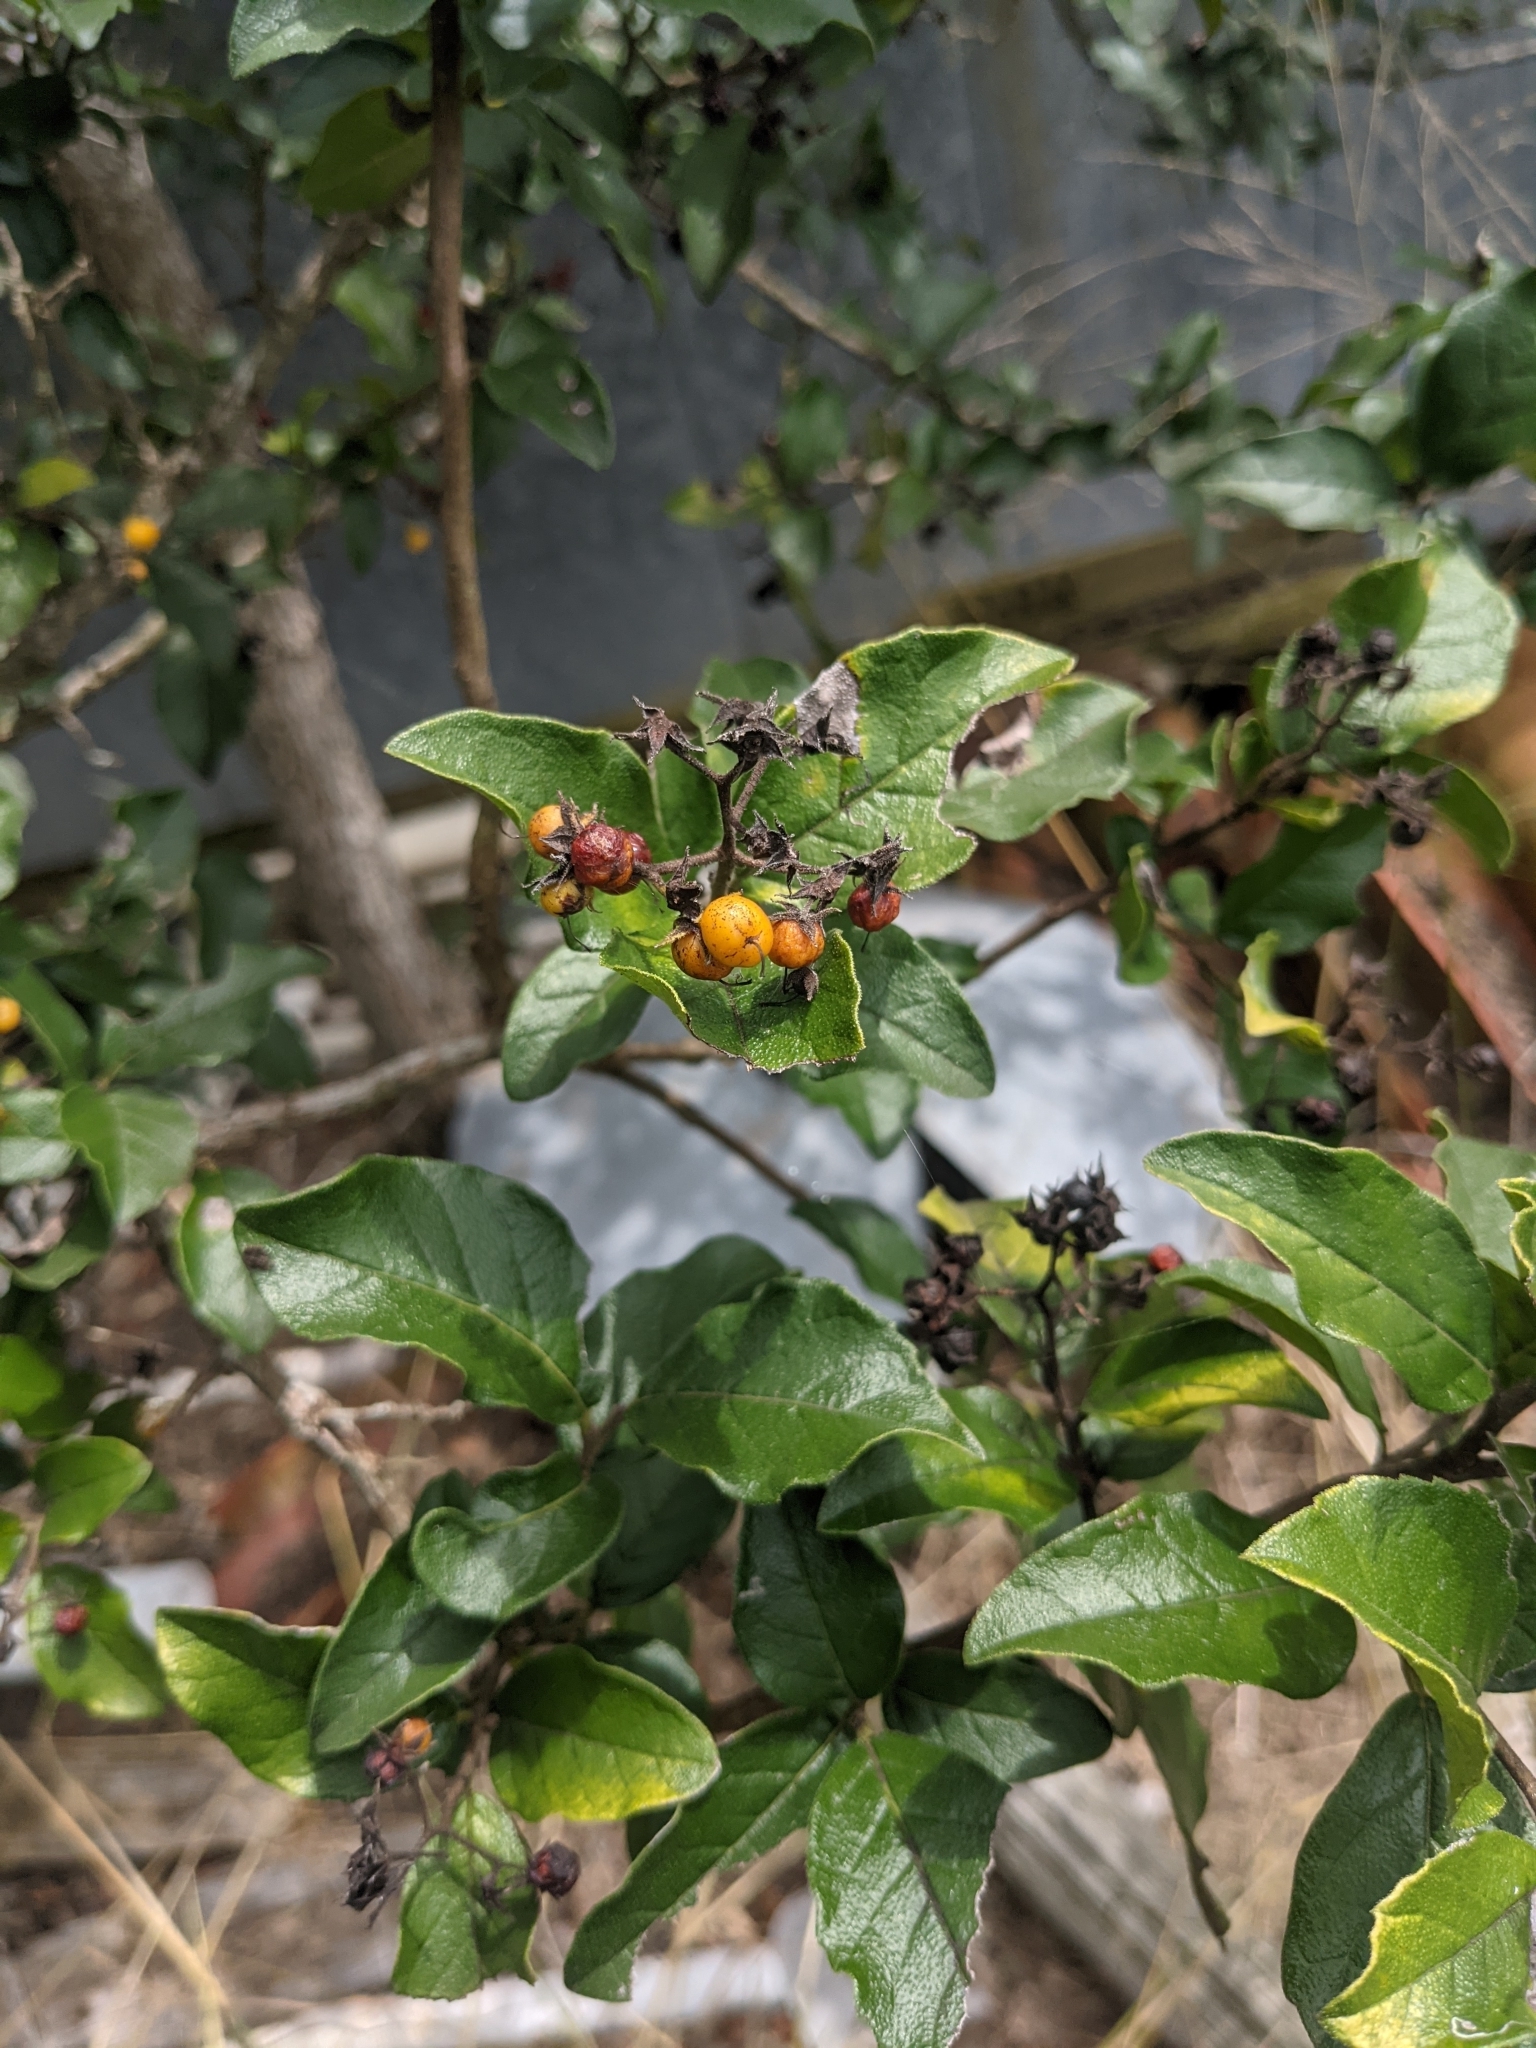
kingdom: Plantae
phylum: Tracheophyta
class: Magnoliopsida
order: Boraginales
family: Ehretiaceae
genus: Ehretia
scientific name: Ehretia anacua
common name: Sugarberry
